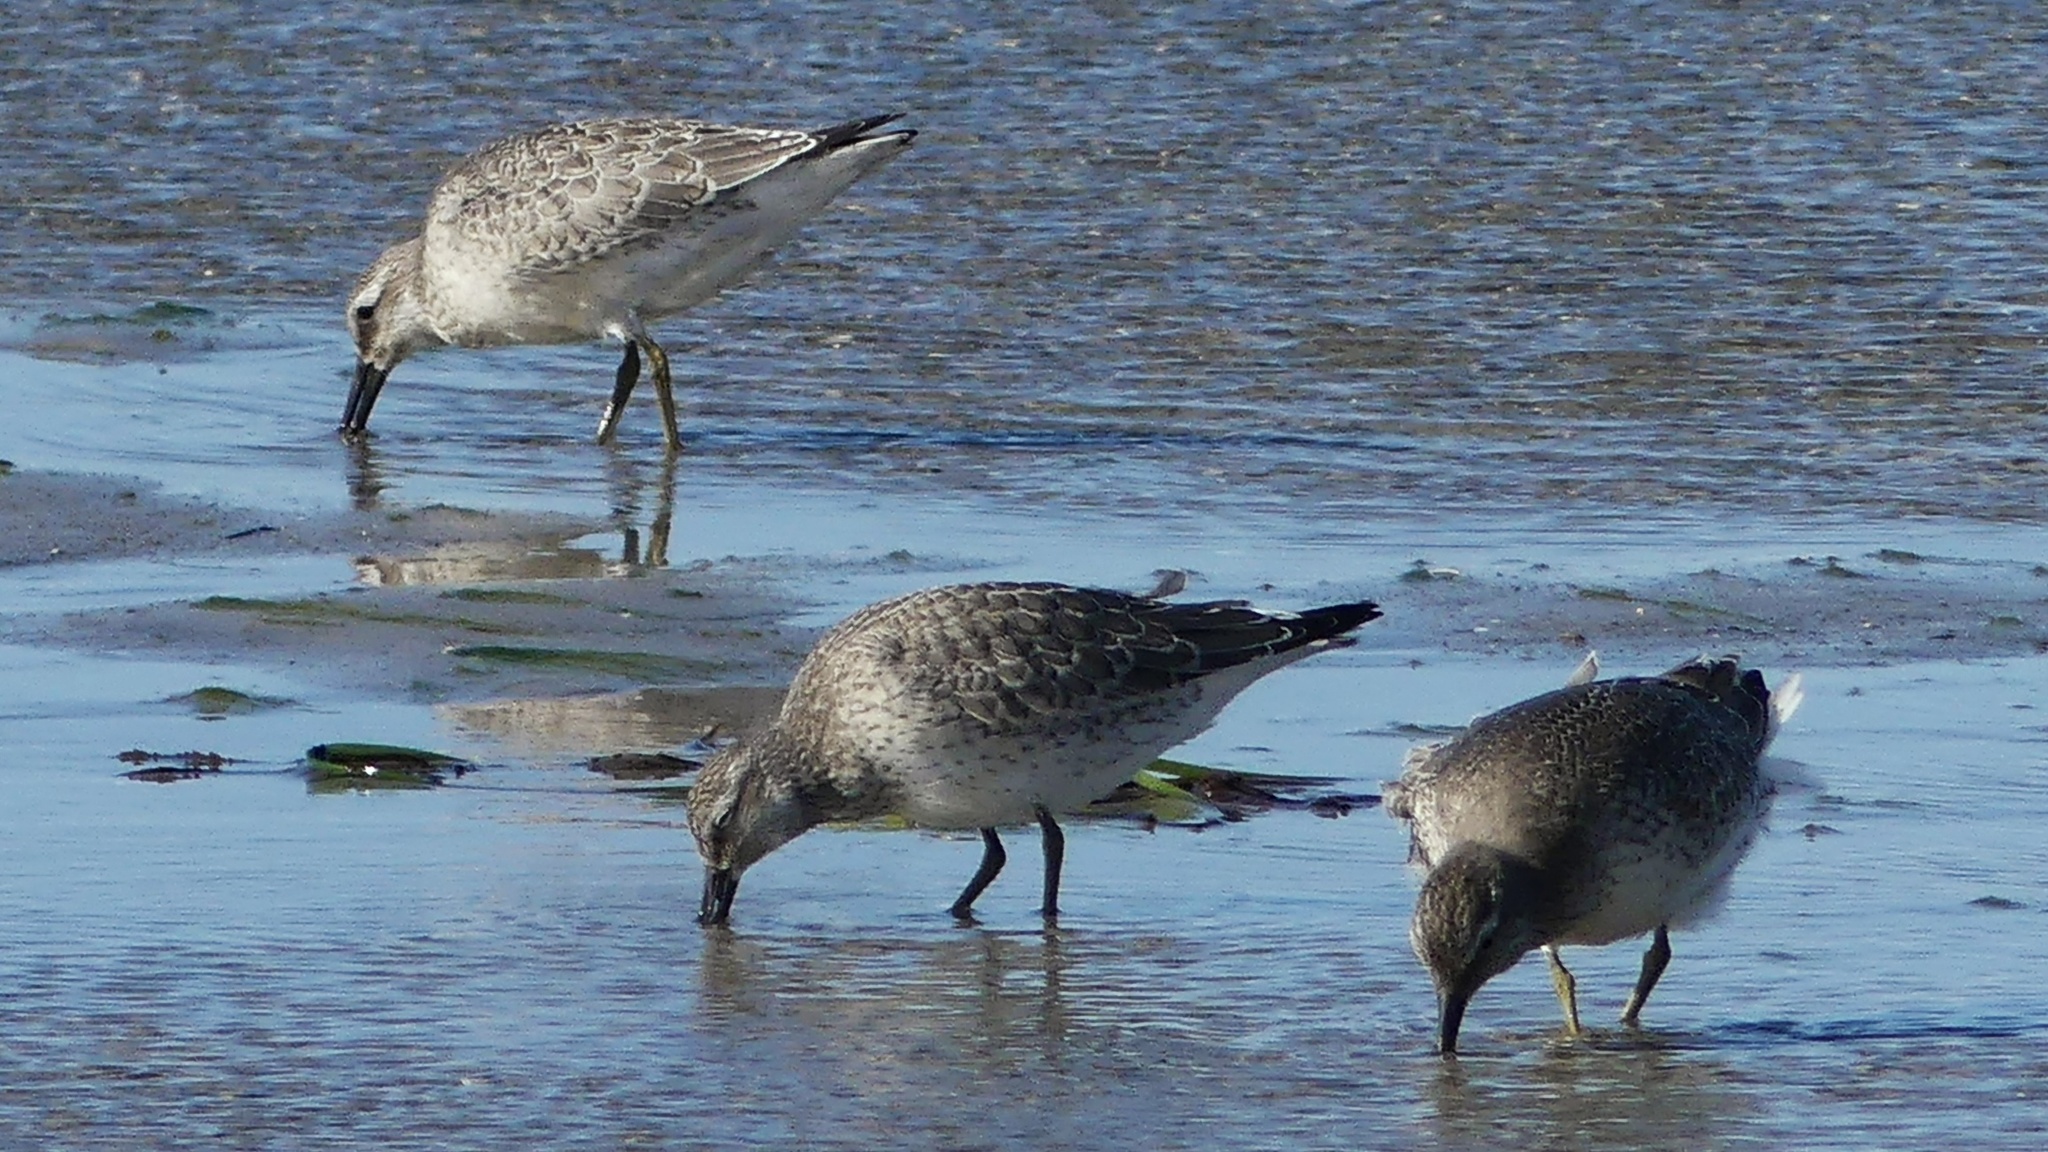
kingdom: Animalia
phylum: Chordata
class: Aves
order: Charadriiformes
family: Scolopacidae
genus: Calidris
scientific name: Calidris canutus
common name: Red knot
